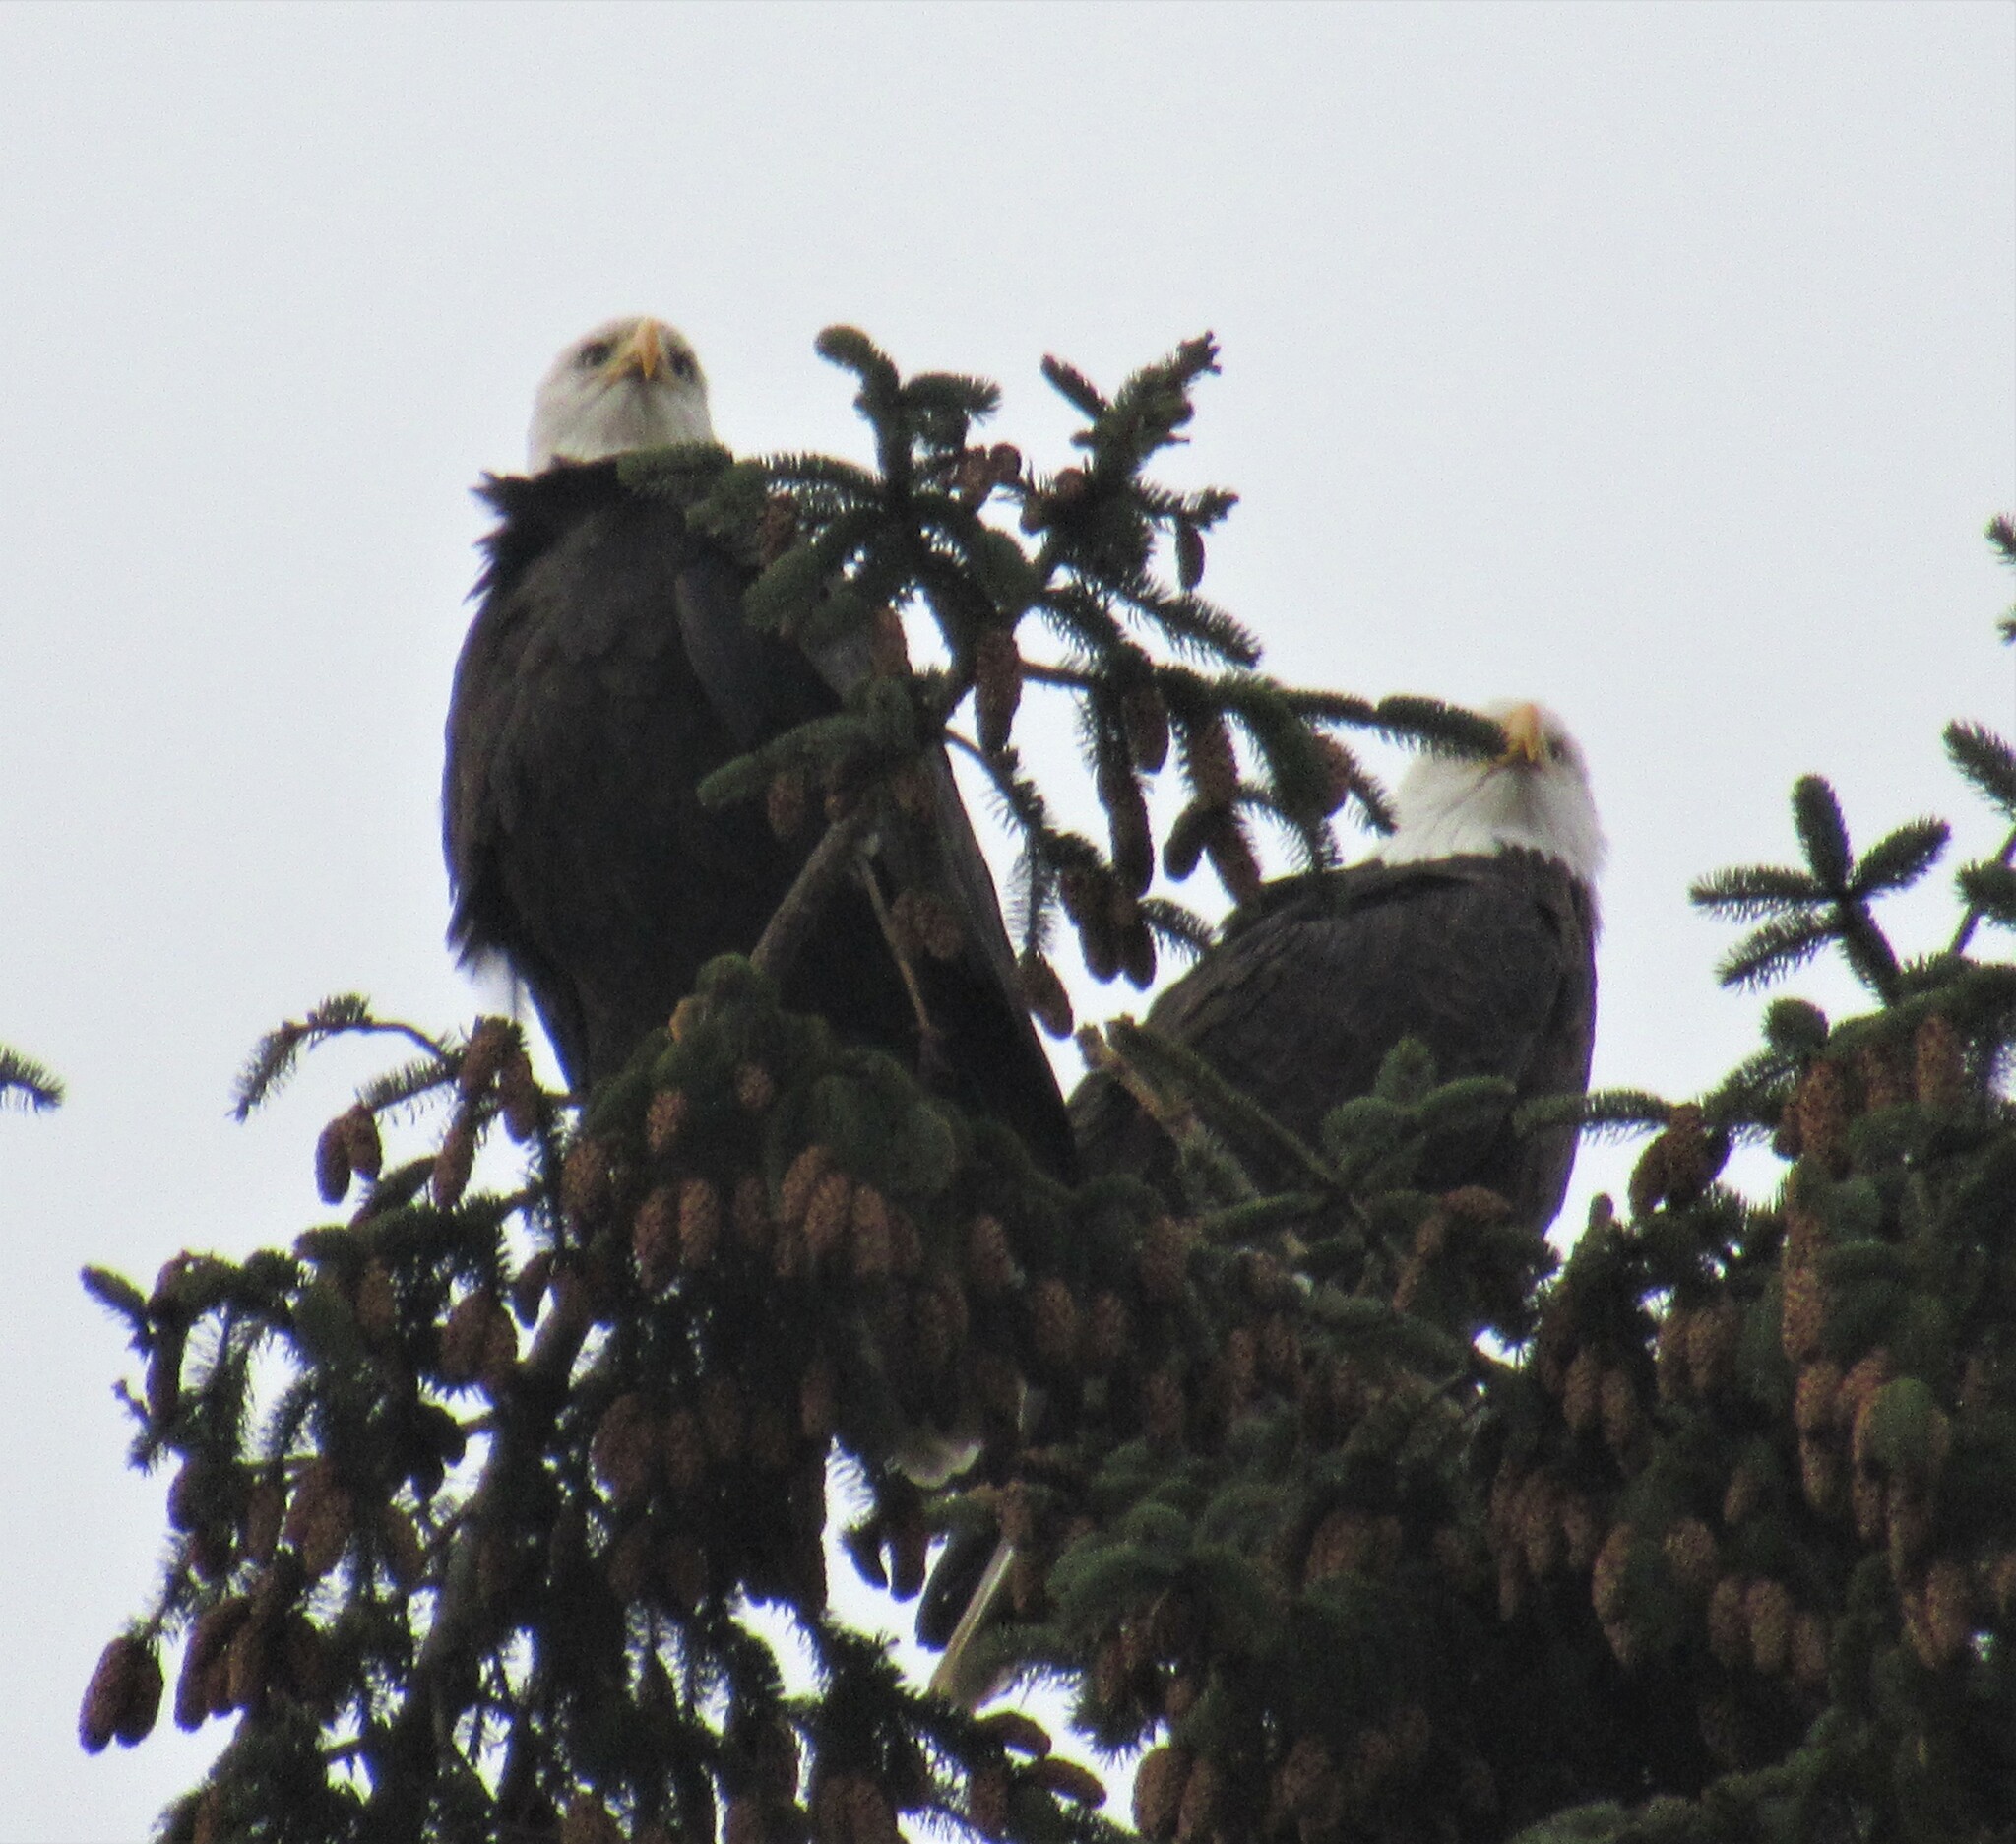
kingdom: Animalia
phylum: Chordata
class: Aves
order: Accipitriformes
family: Accipitridae
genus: Haliaeetus
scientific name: Haliaeetus leucocephalus
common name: Bald eagle
